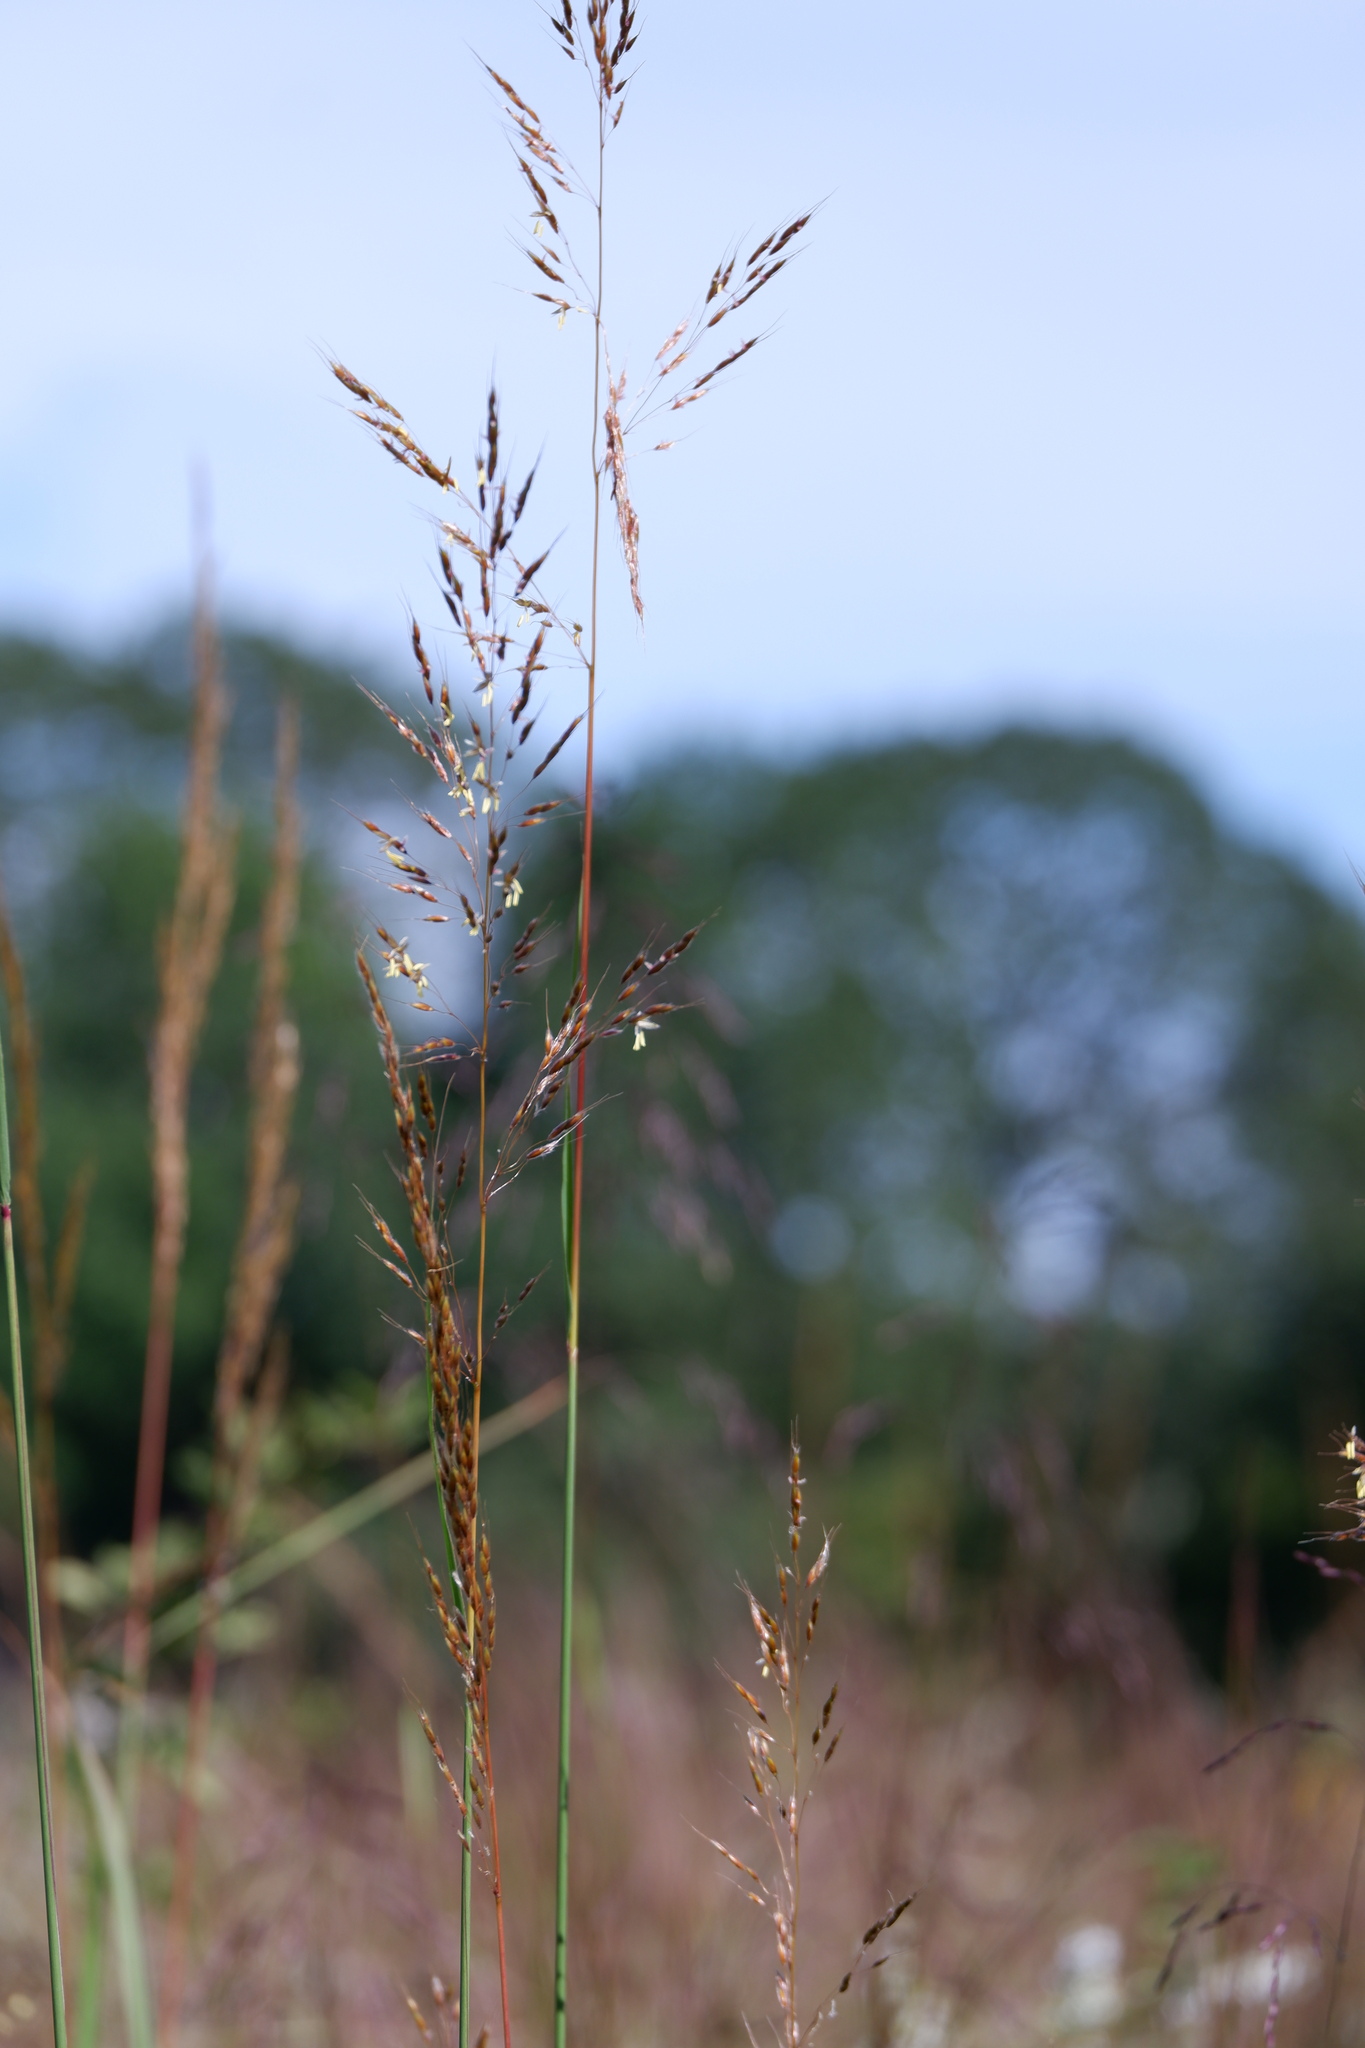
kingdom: Plantae
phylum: Tracheophyta
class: Liliopsida
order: Poales
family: Poaceae
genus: Sorghastrum
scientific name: Sorghastrum nutans
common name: Indian grass
